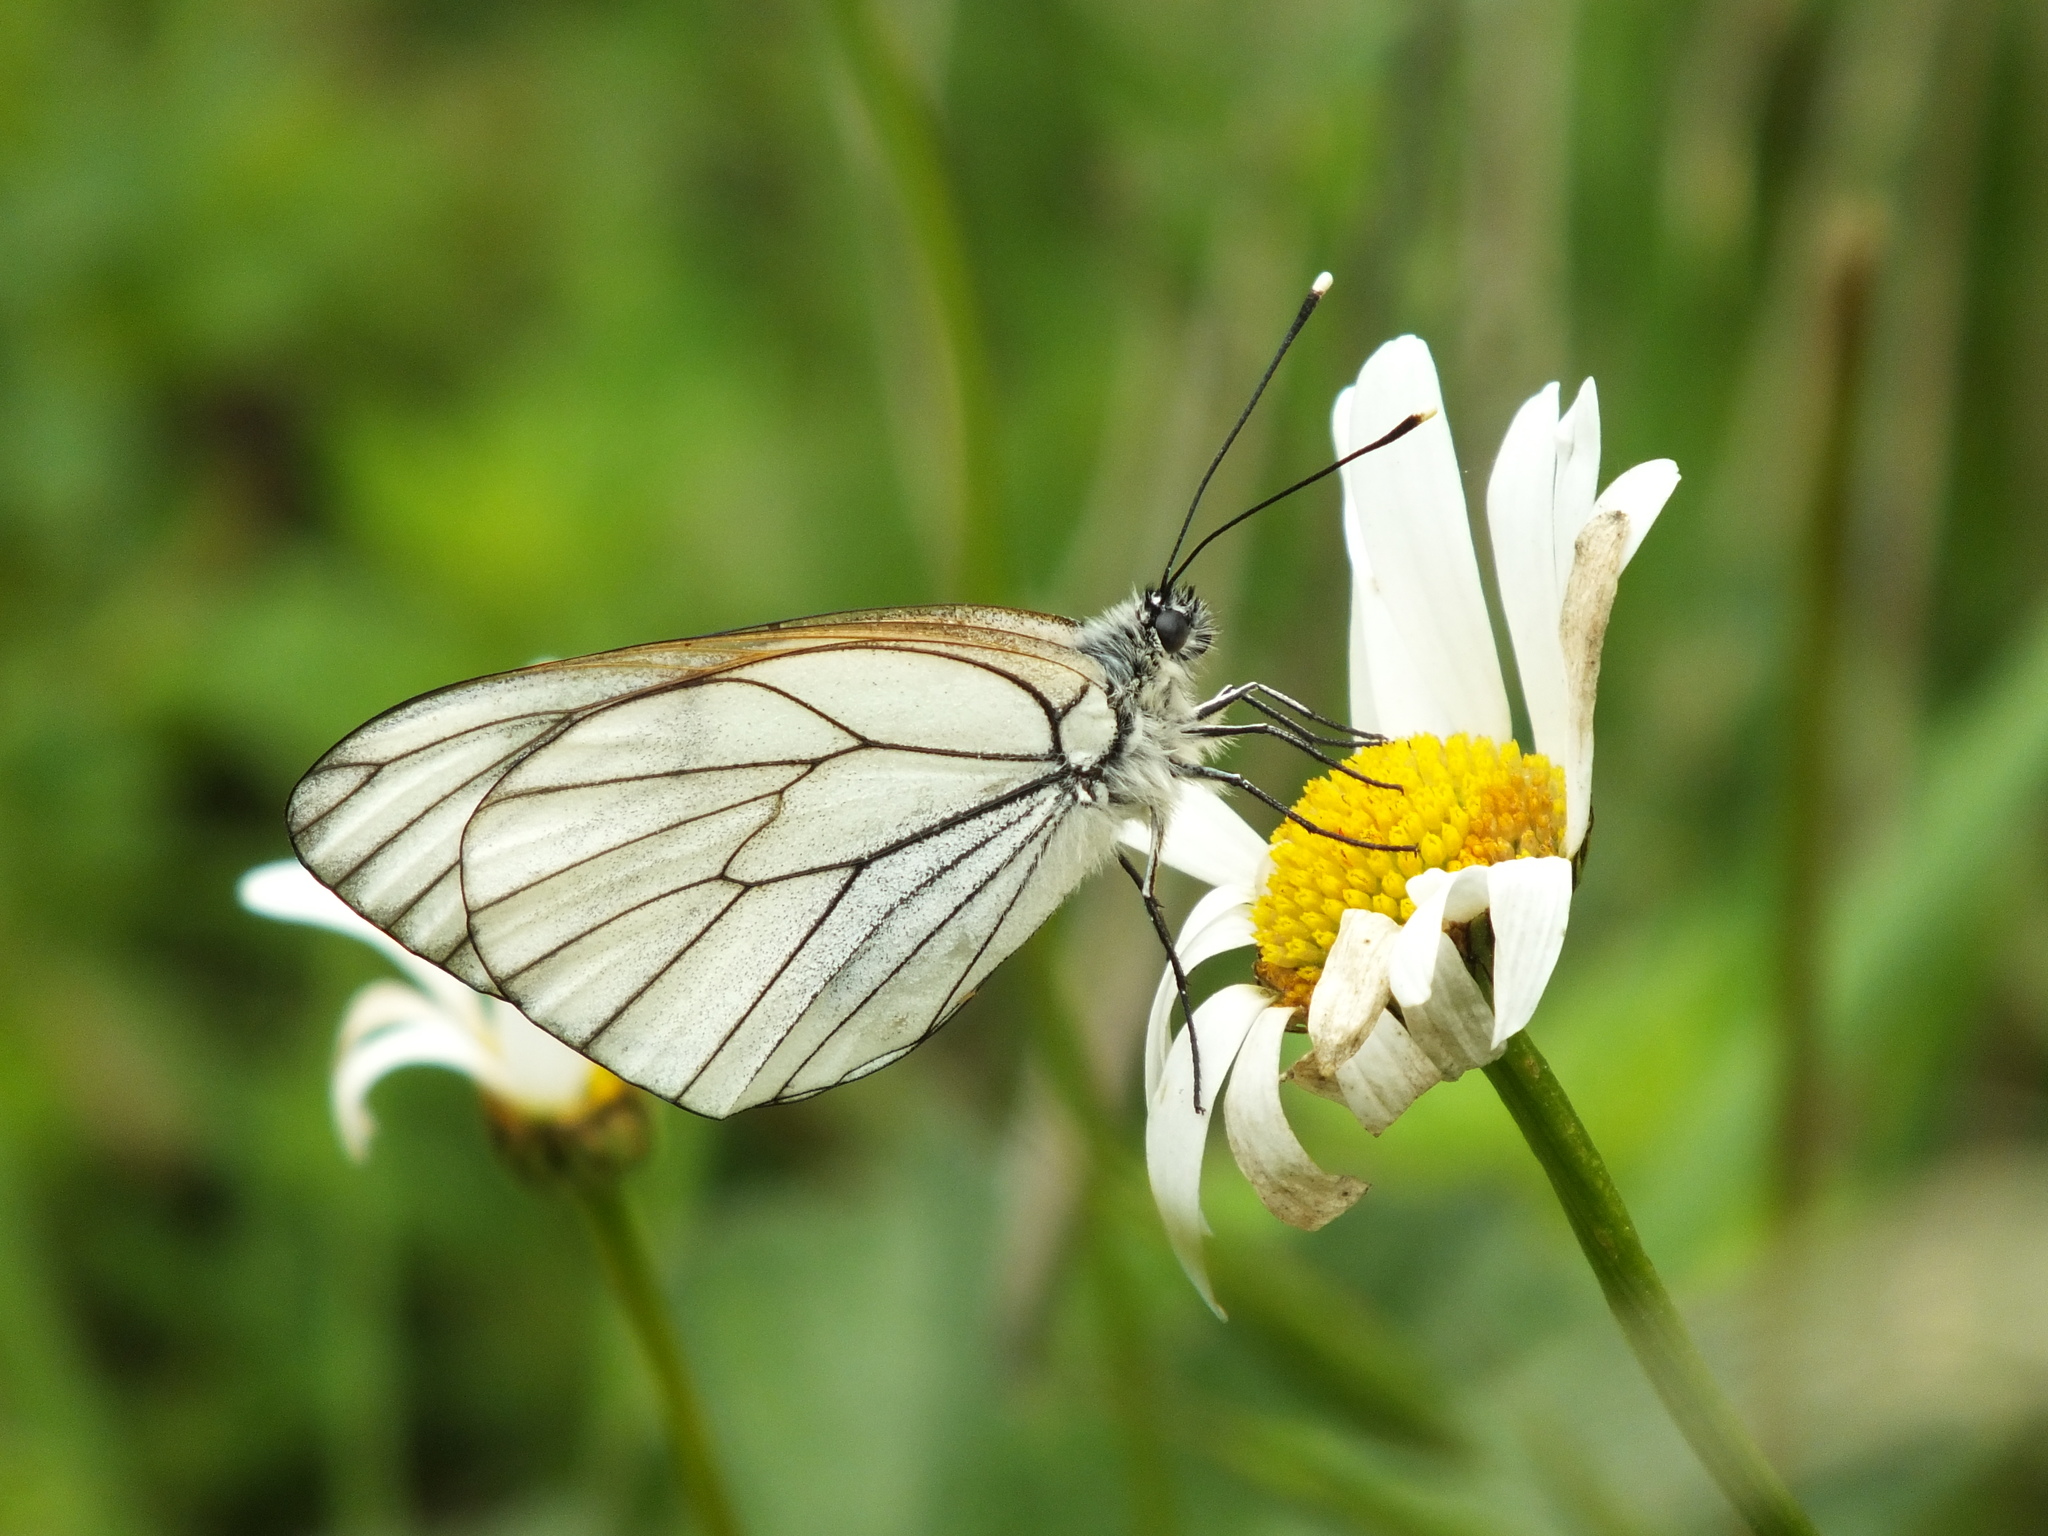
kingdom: Animalia
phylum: Arthropoda
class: Insecta
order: Lepidoptera
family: Pieridae
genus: Aporia
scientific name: Aporia crataegi
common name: Black-veined white
